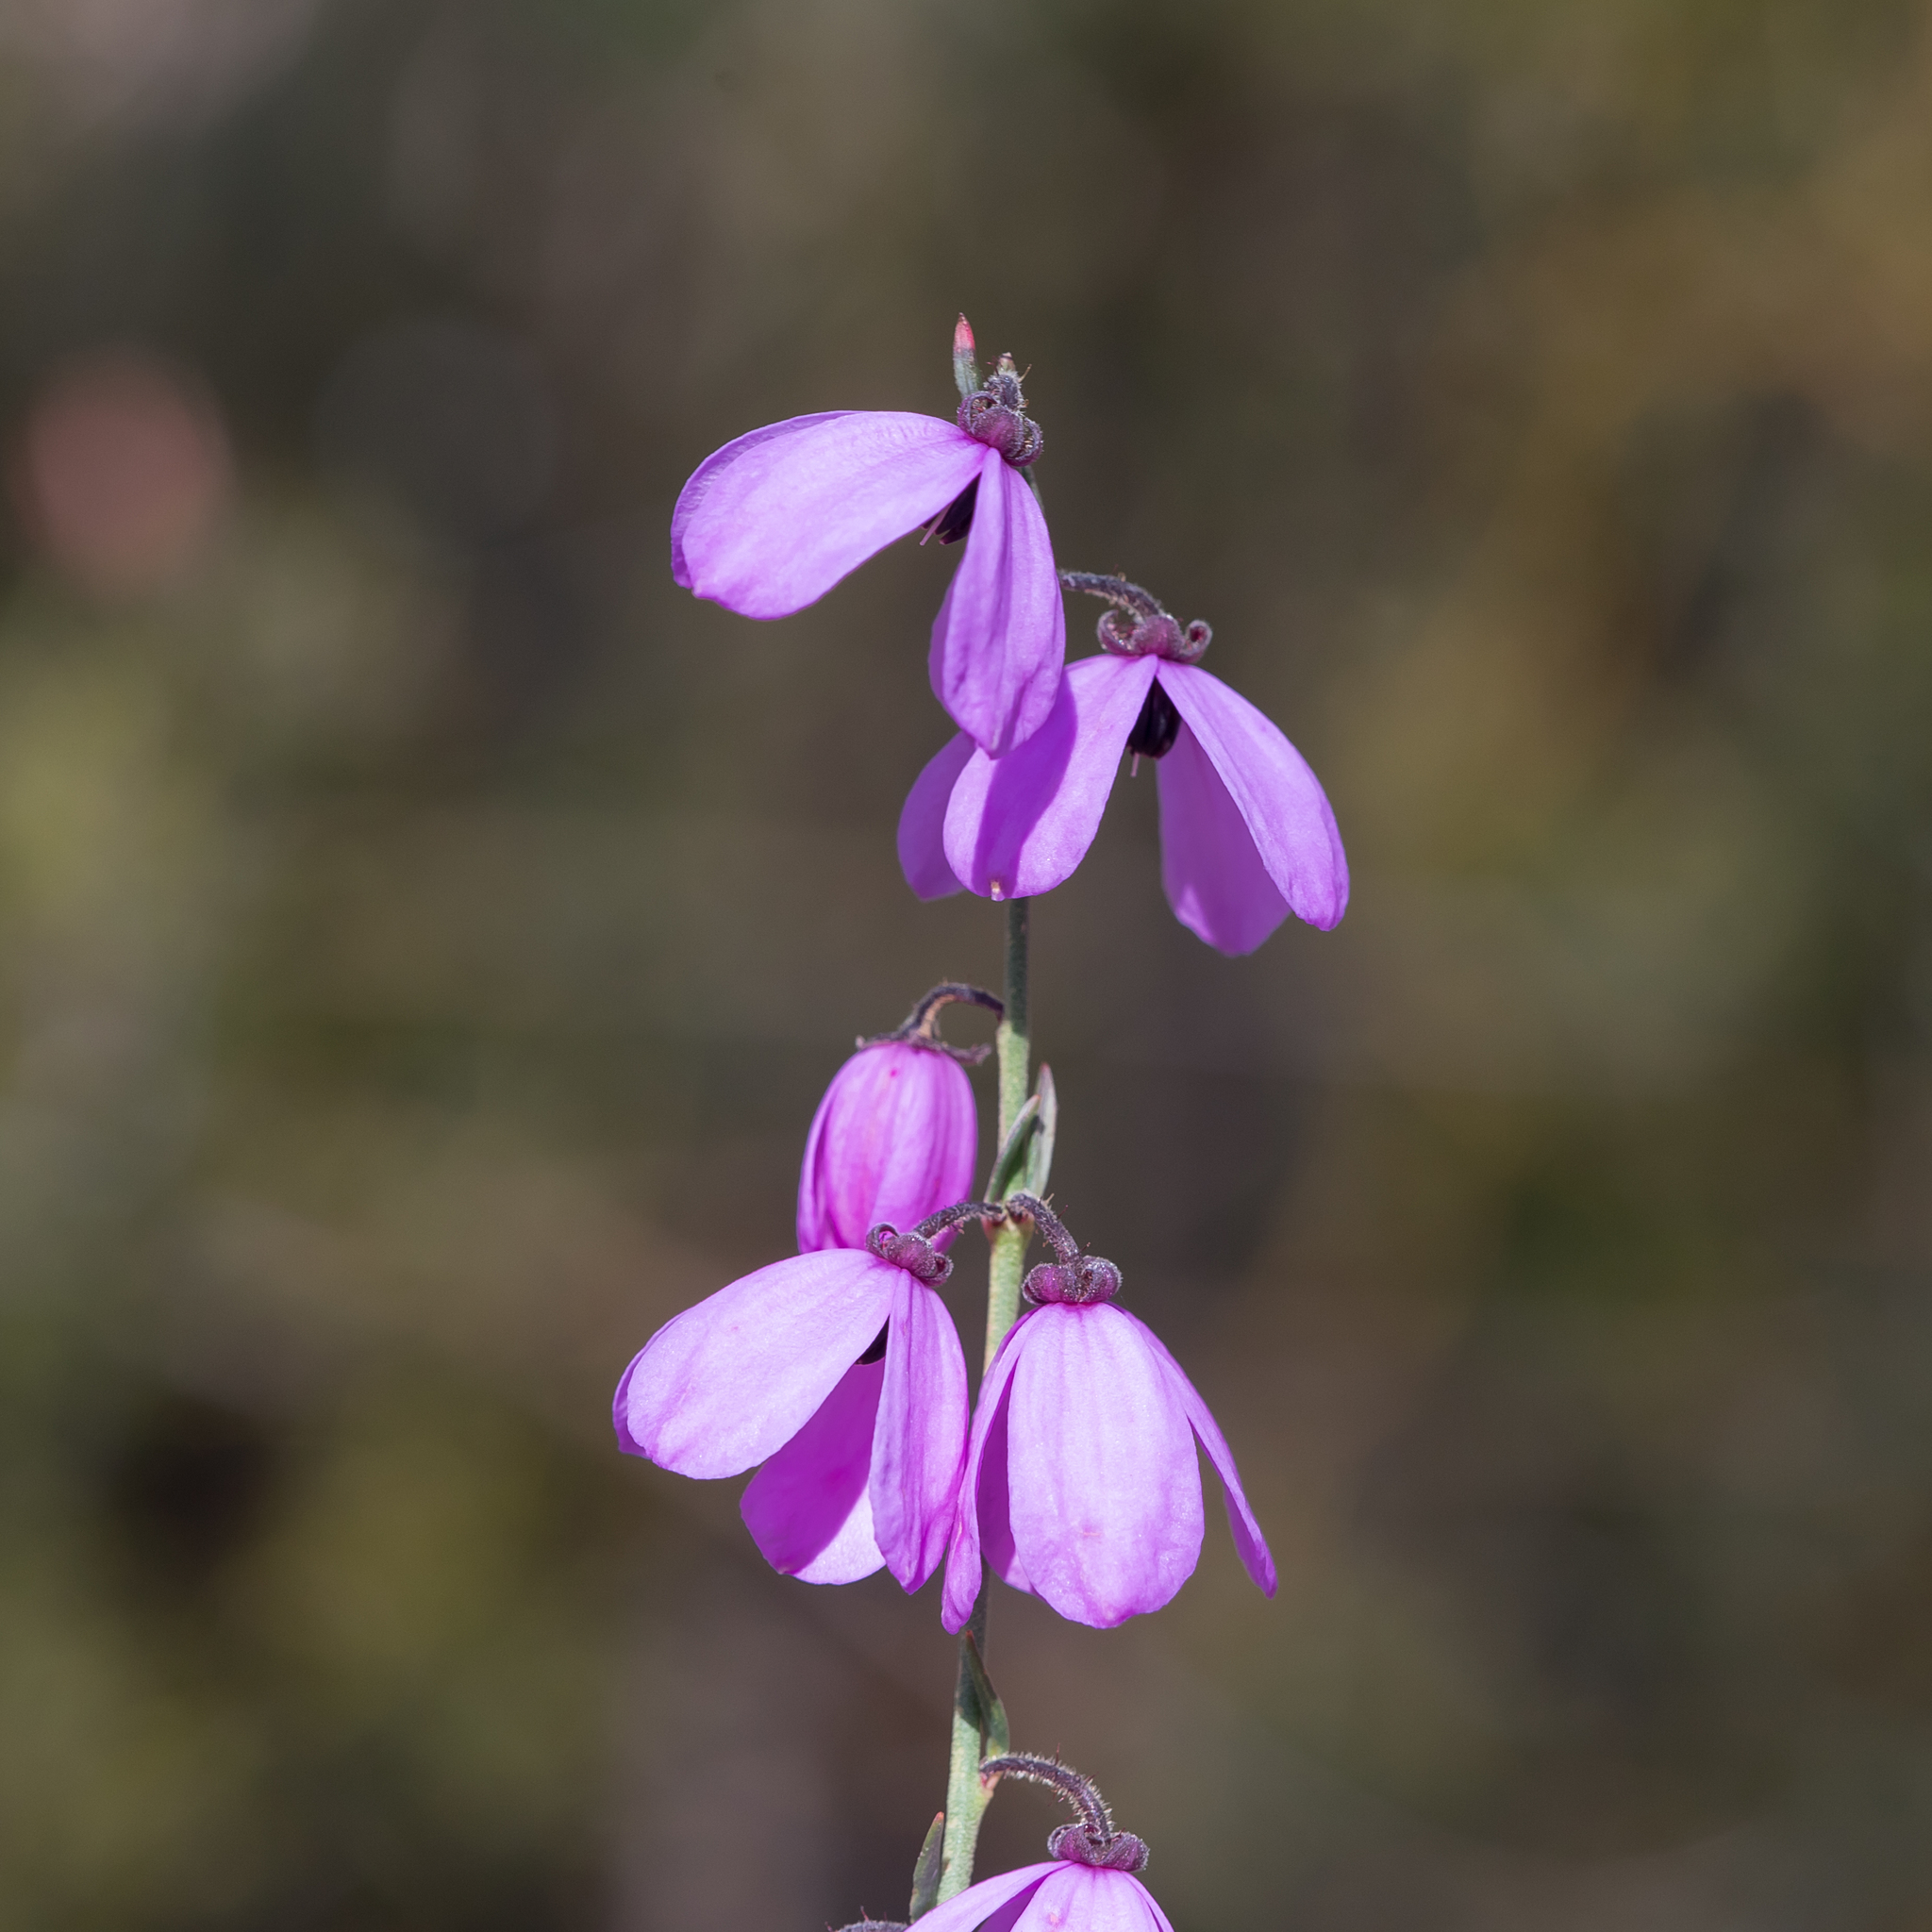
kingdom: Plantae
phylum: Tracheophyta
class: Magnoliopsida
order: Oxalidales
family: Elaeocarpaceae
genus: Tetratheca
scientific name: Tetratheca ciliata
